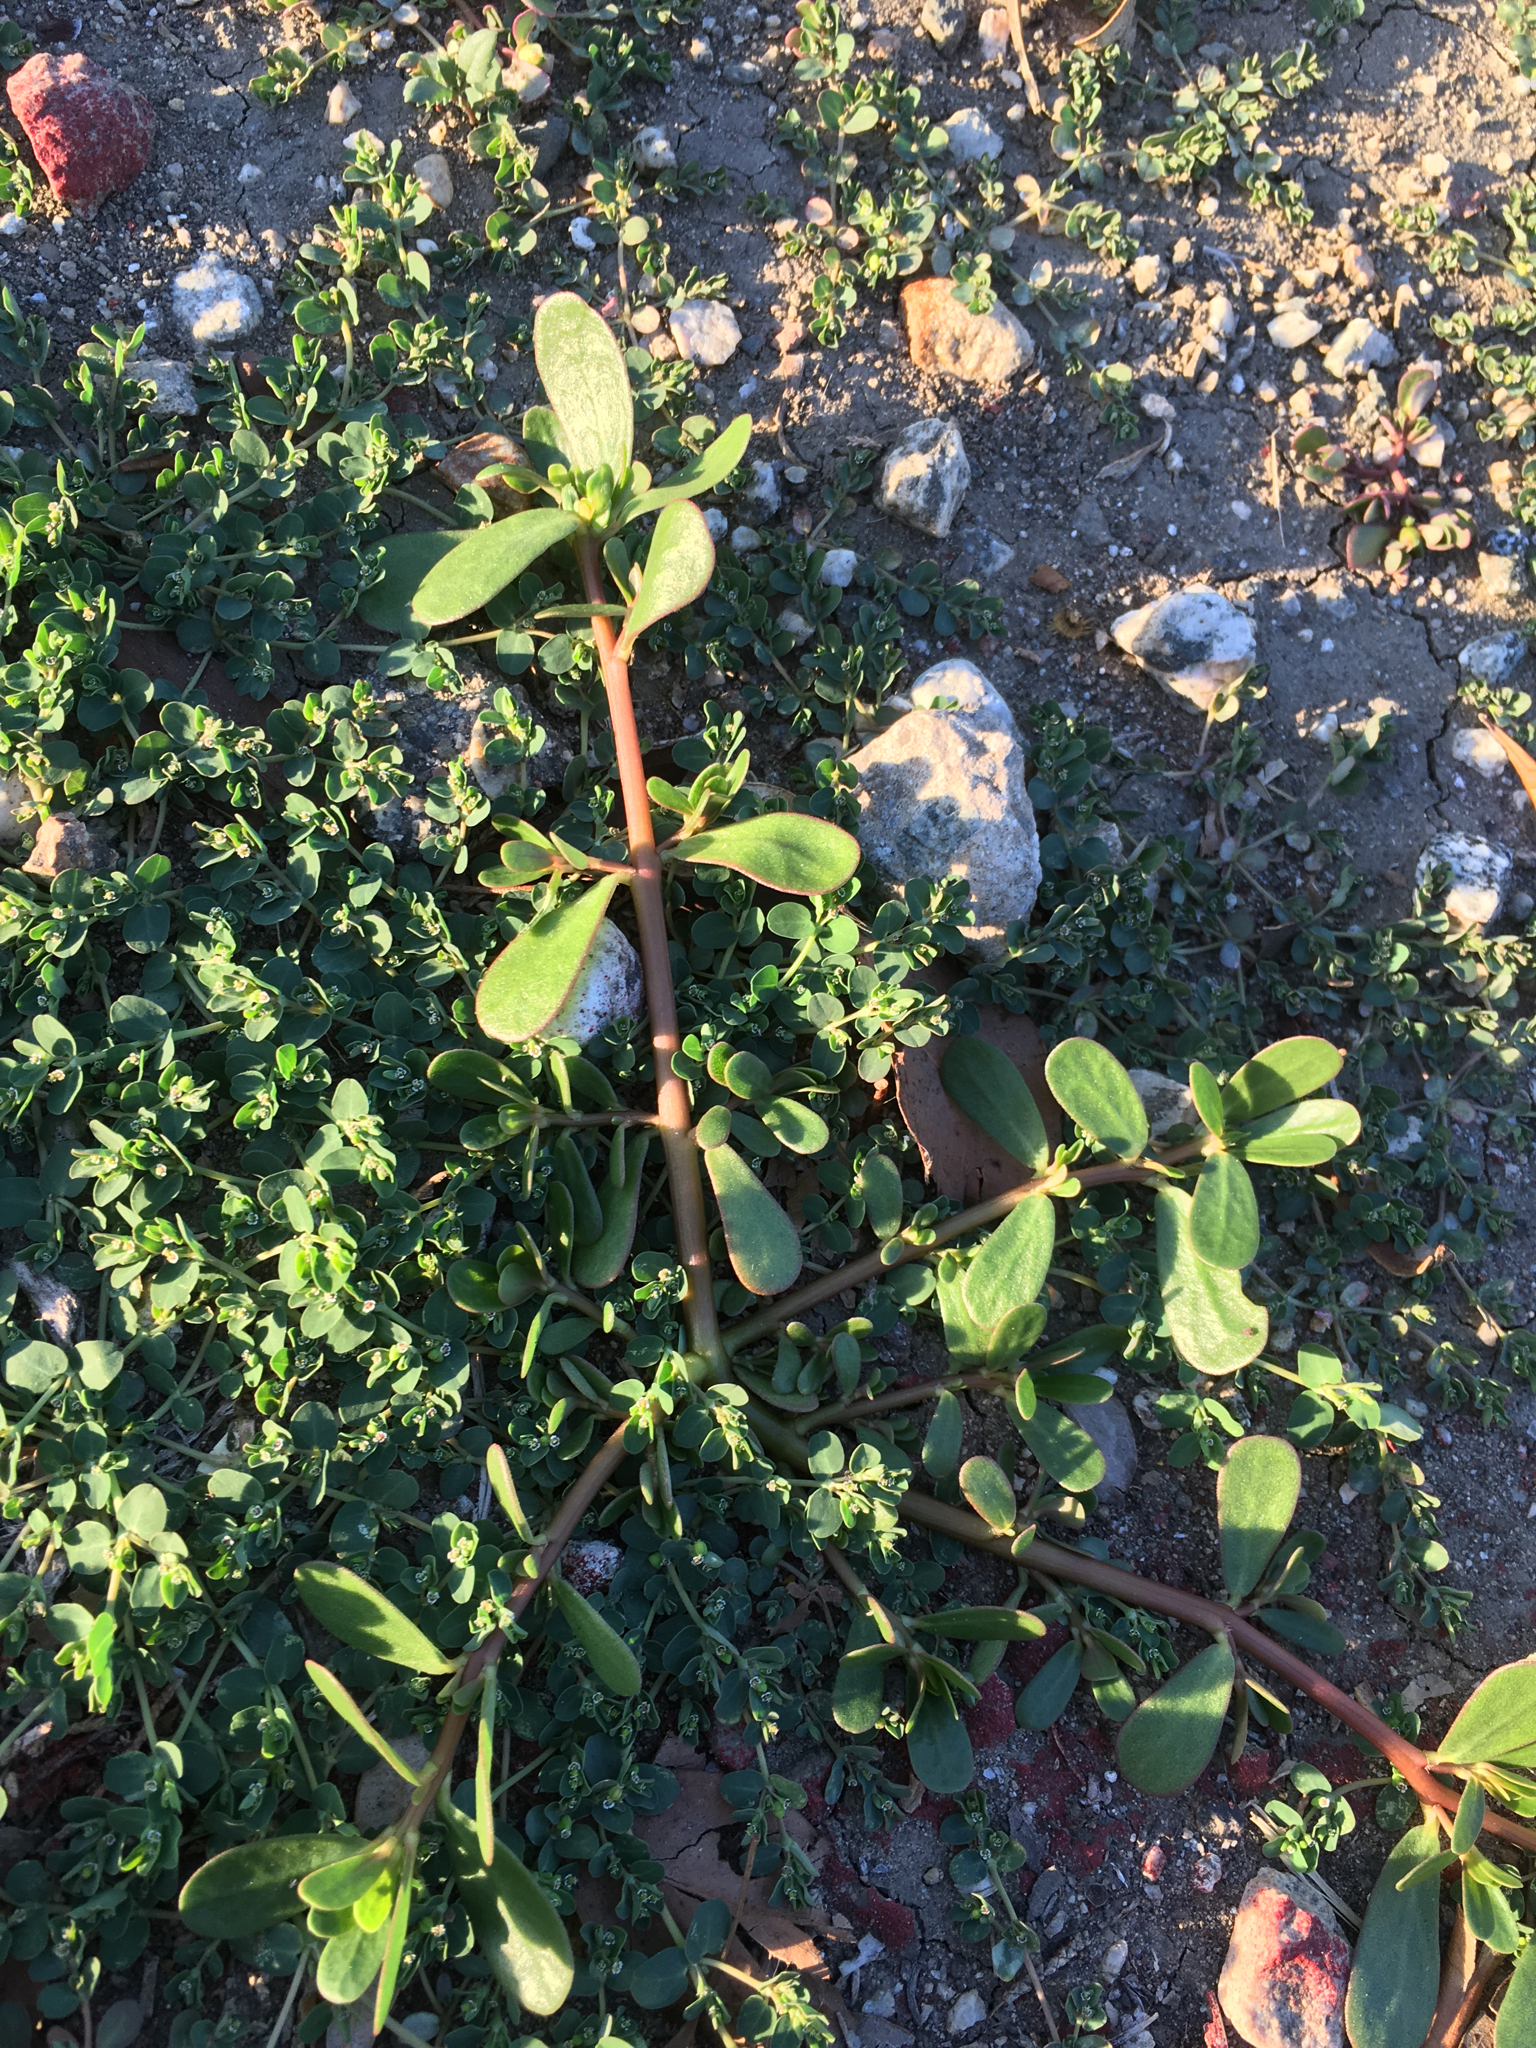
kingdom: Plantae
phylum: Tracheophyta
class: Magnoliopsida
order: Caryophyllales
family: Portulacaceae
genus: Portulaca
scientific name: Portulaca oleracea
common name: Common purslane
